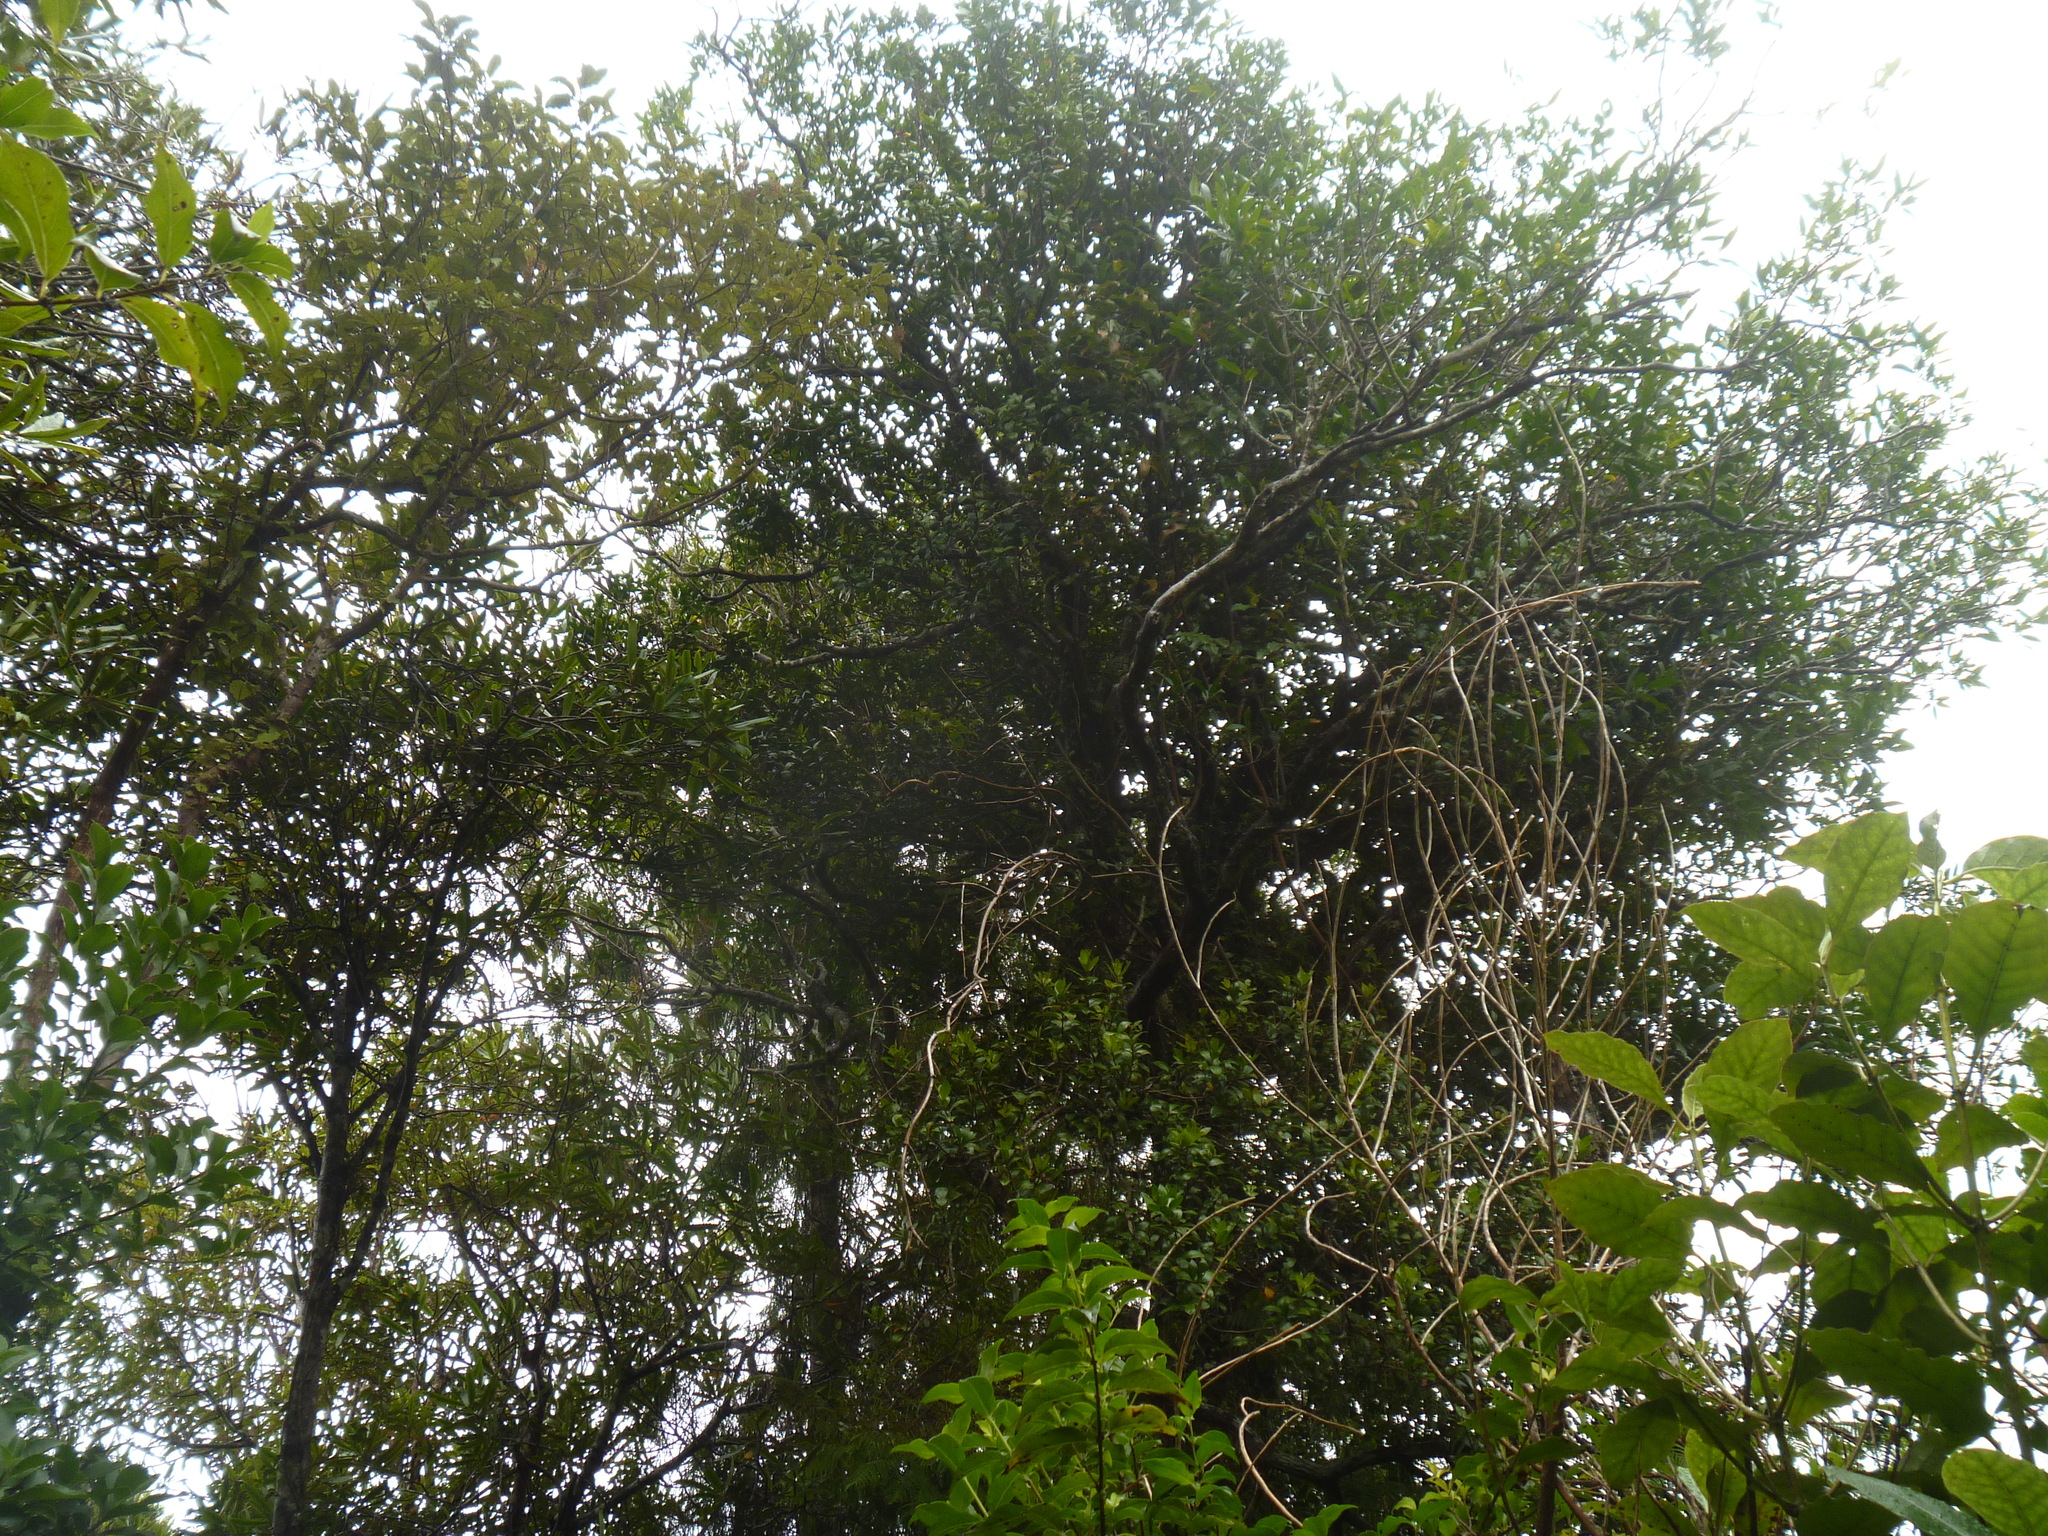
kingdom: Plantae
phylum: Tracheophyta
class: Magnoliopsida
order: Lamiales
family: Oleaceae
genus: Nestegis
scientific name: Nestegis lanceolata
